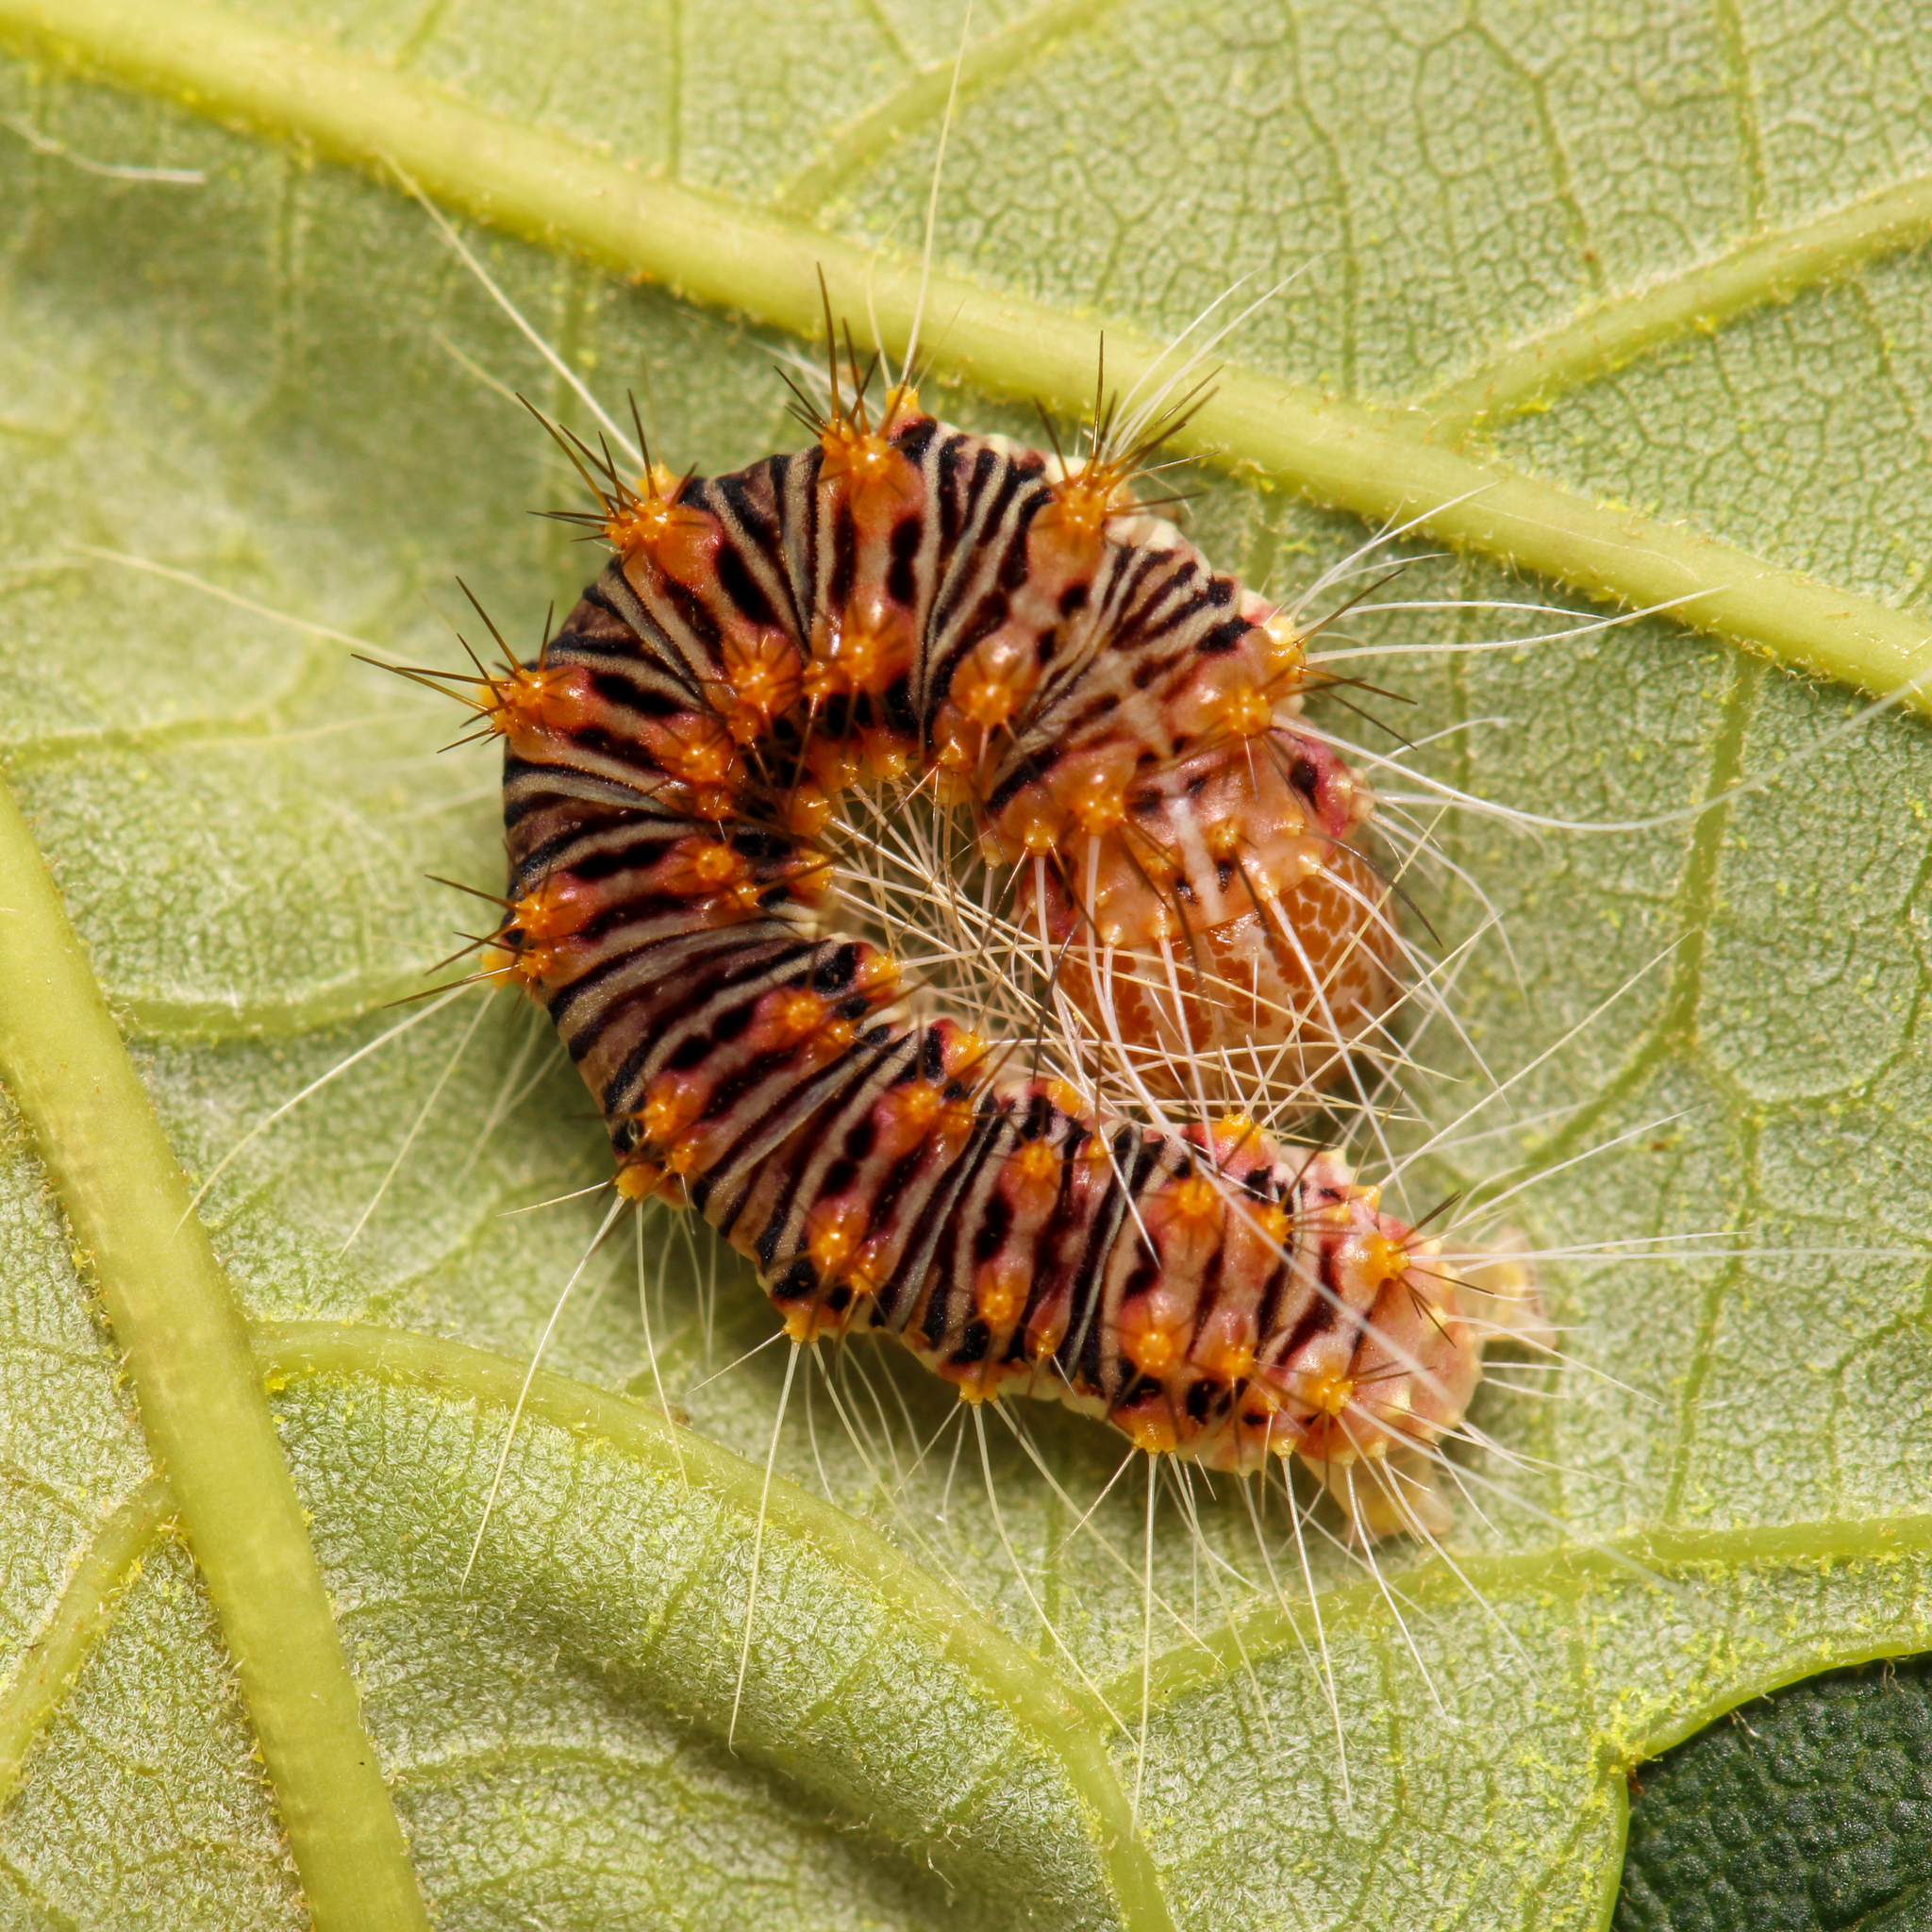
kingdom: Animalia
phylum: Arthropoda
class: Insecta
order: Lepidoptera
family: Noctuidae
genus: Acronicta
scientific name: Acronicta retardata
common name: Maple dagger
